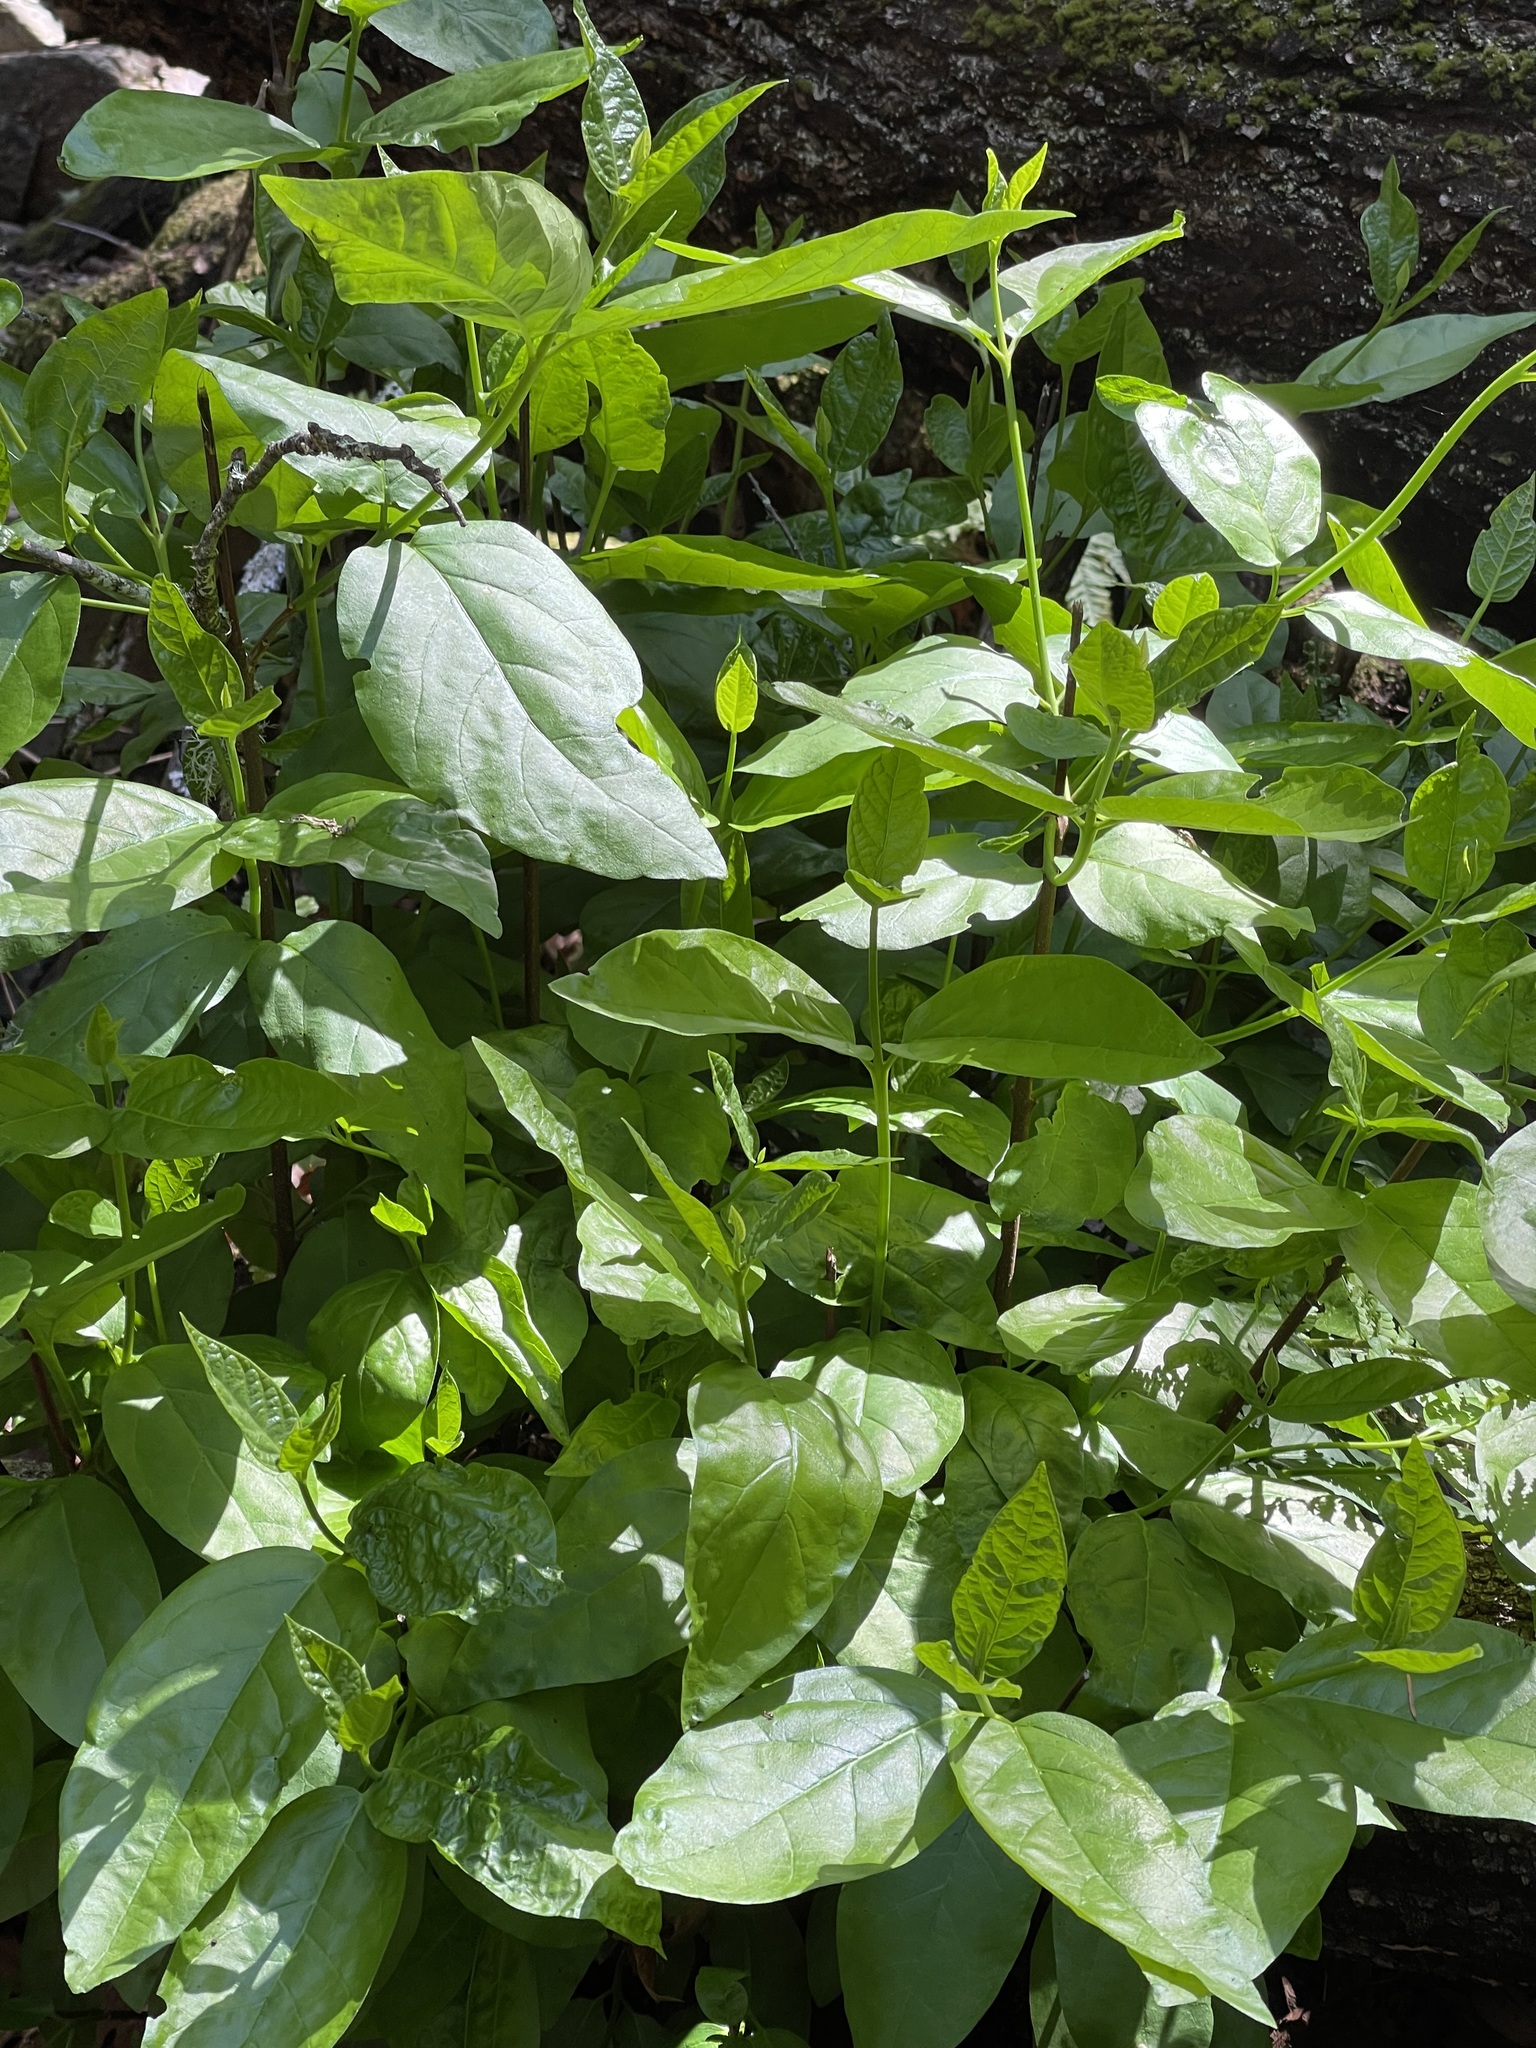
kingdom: Plantae
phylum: Tracheophyta
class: Magnoliopsida
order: Laurales
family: Calycanthaceae
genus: Calycanthus
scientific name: Calycanthus occidentalis
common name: California spicebush
